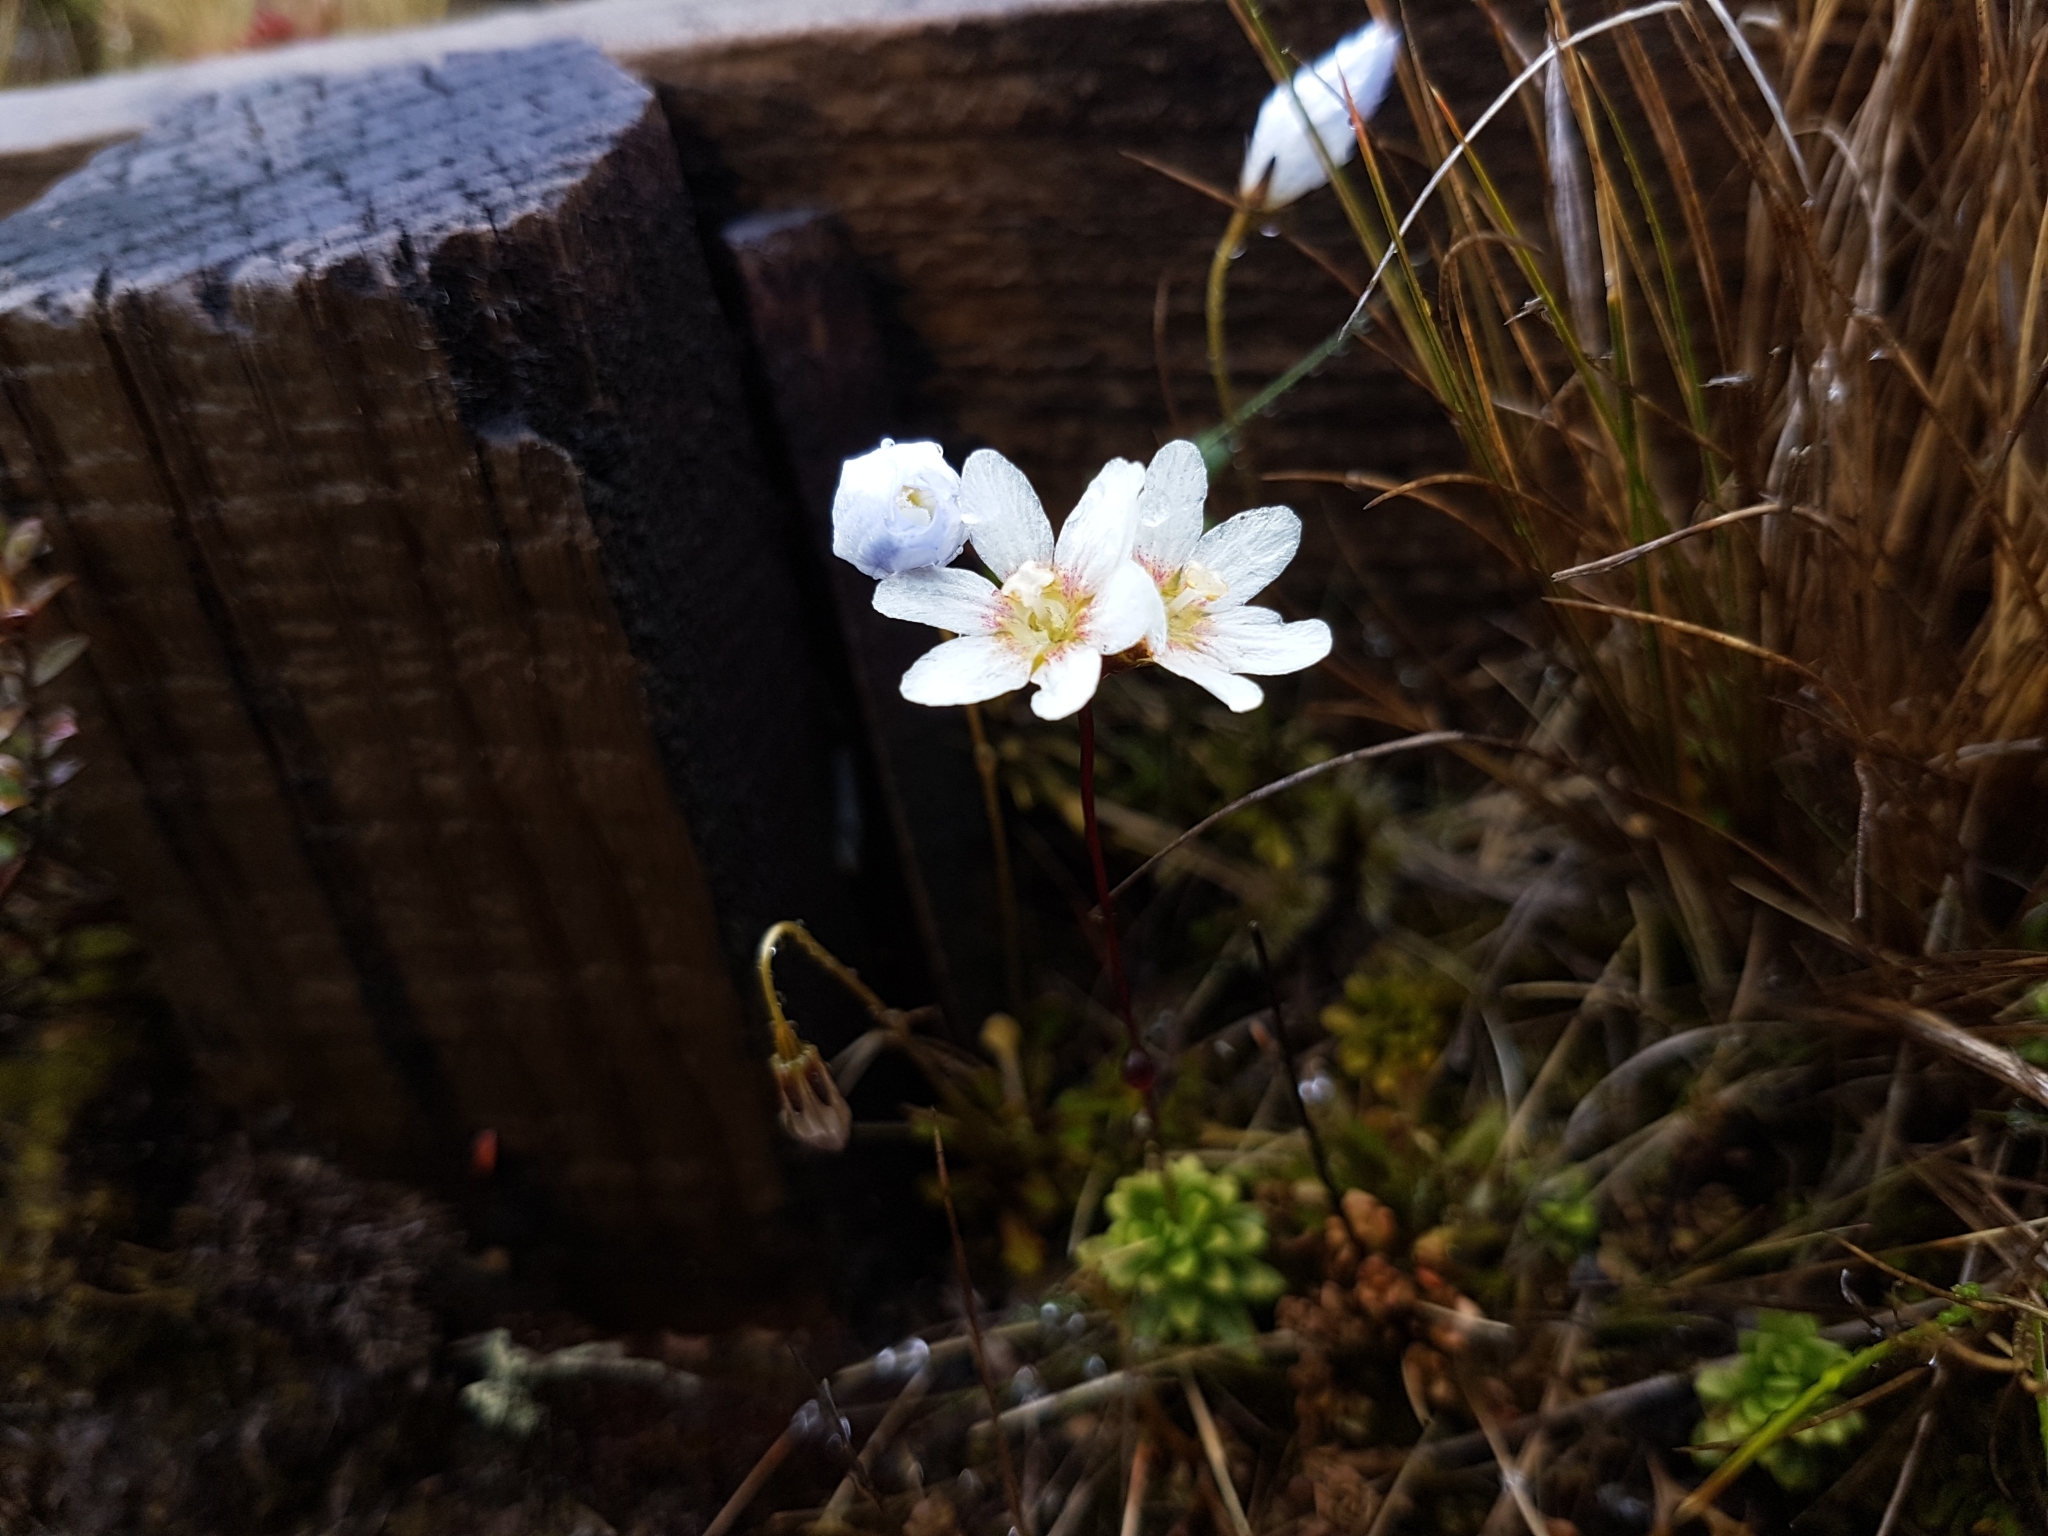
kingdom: Plantae
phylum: Tracheophyta
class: Magnoliopsida
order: Asterales
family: Stylidiaceae
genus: Forstera
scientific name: Forstera tenella
